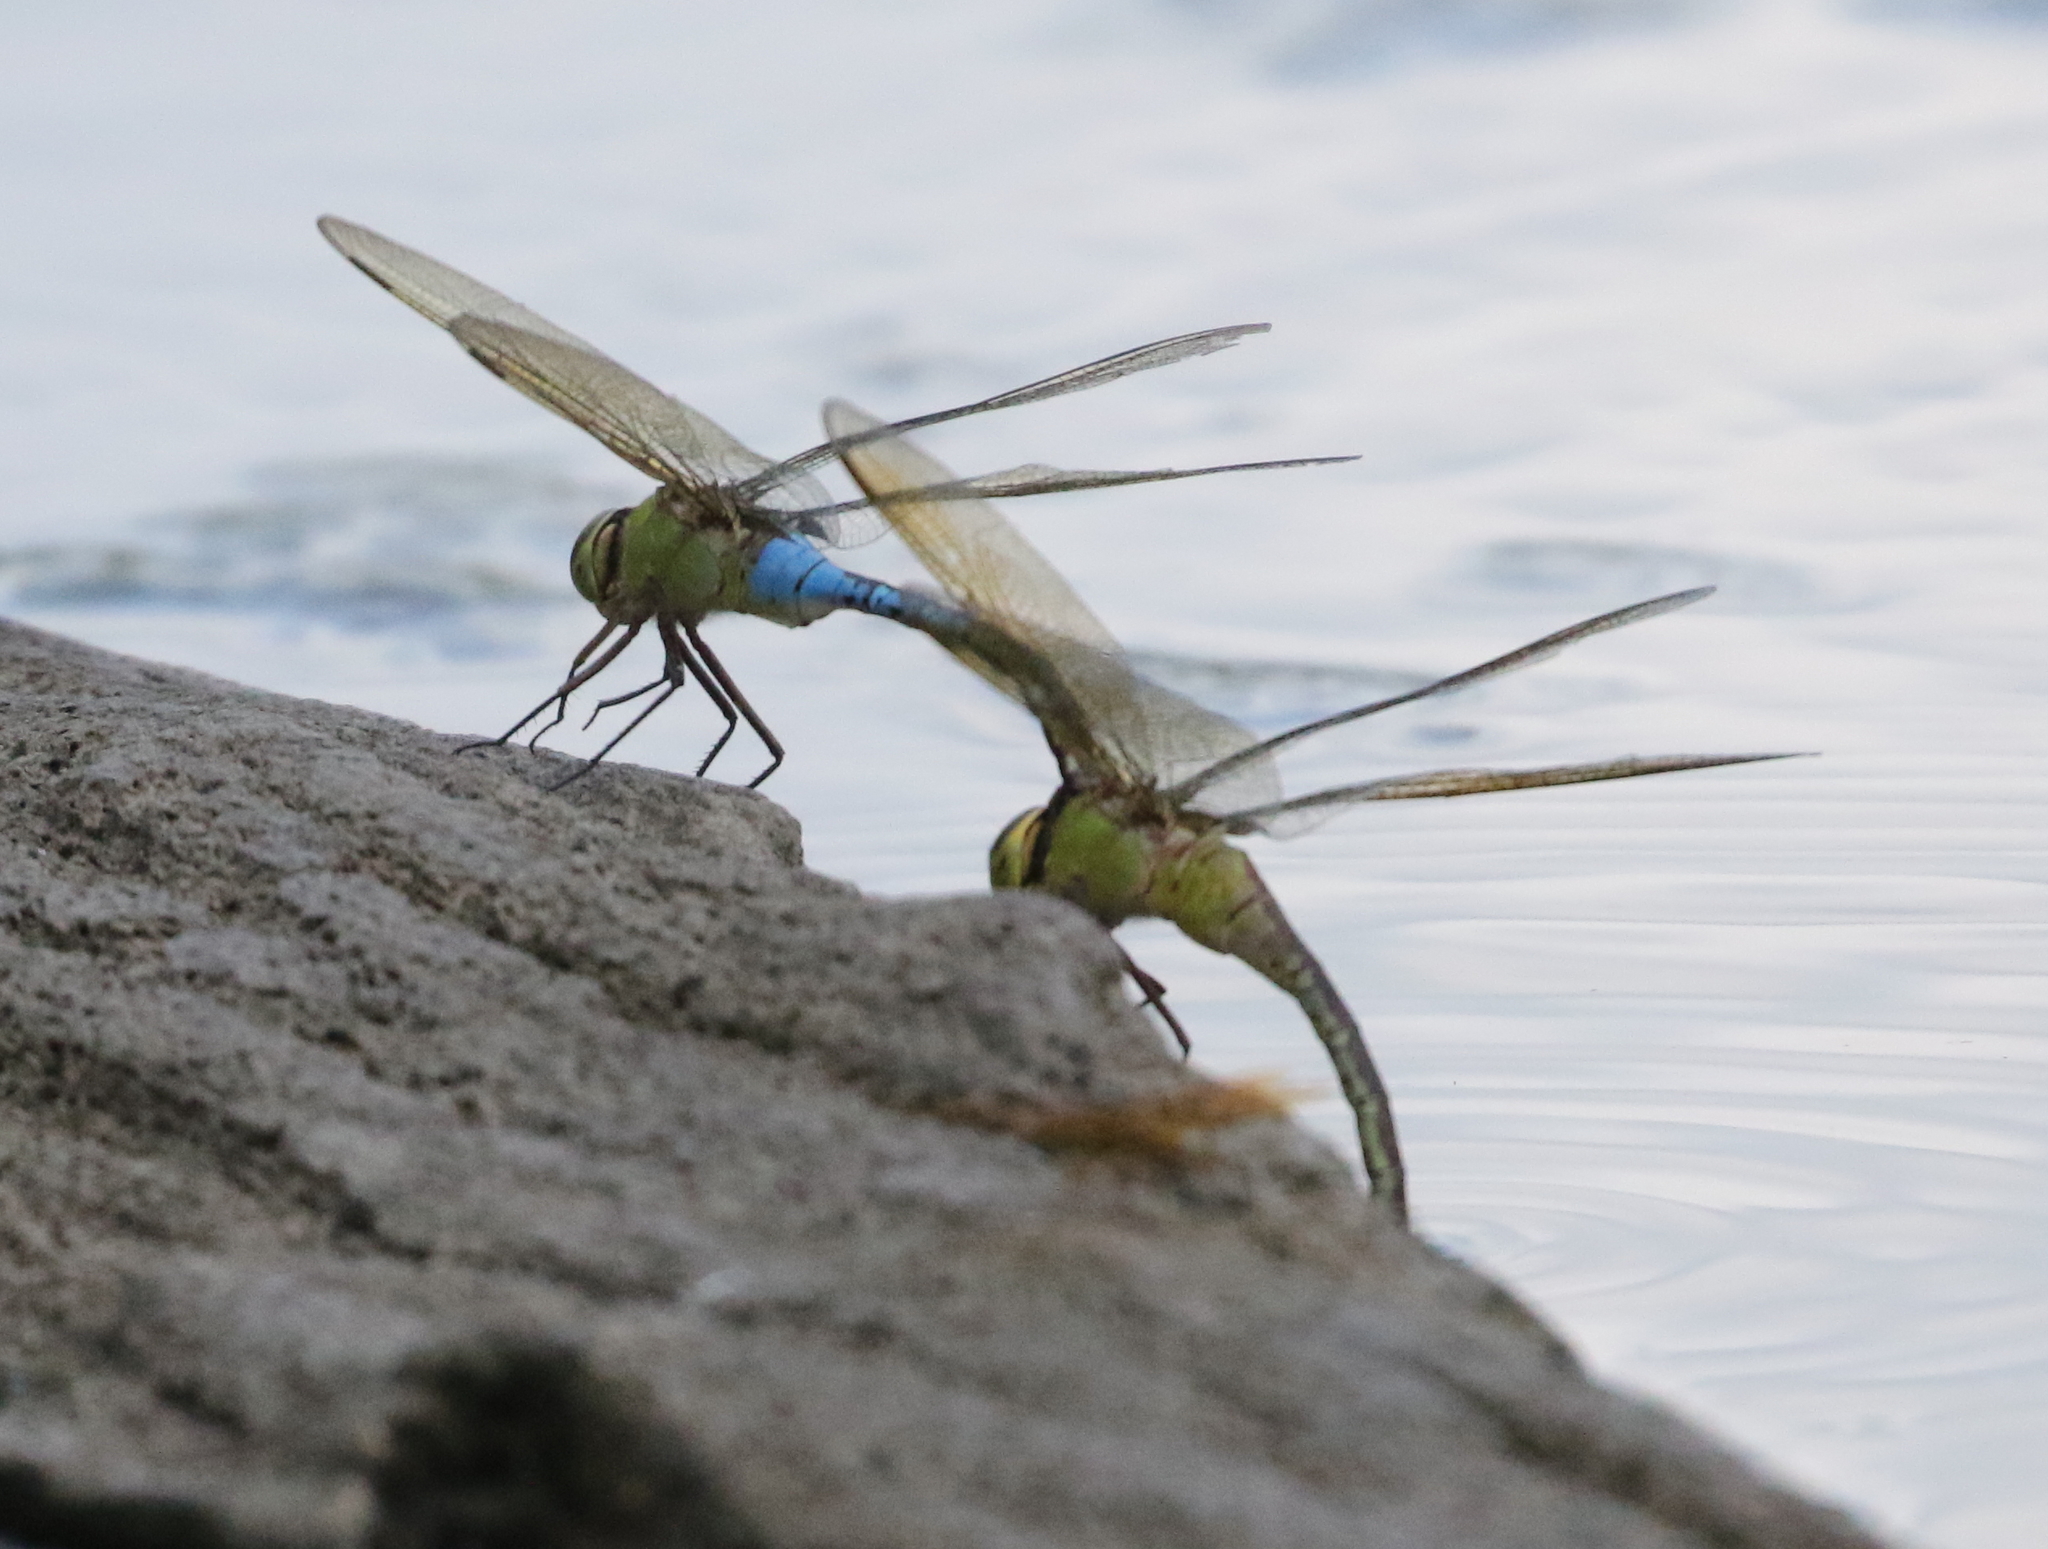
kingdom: Animalia
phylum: Arthropoda
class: Insecta
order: Odonata
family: Aeshnidae
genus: Anax
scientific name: Anax junius
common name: Common green darner
